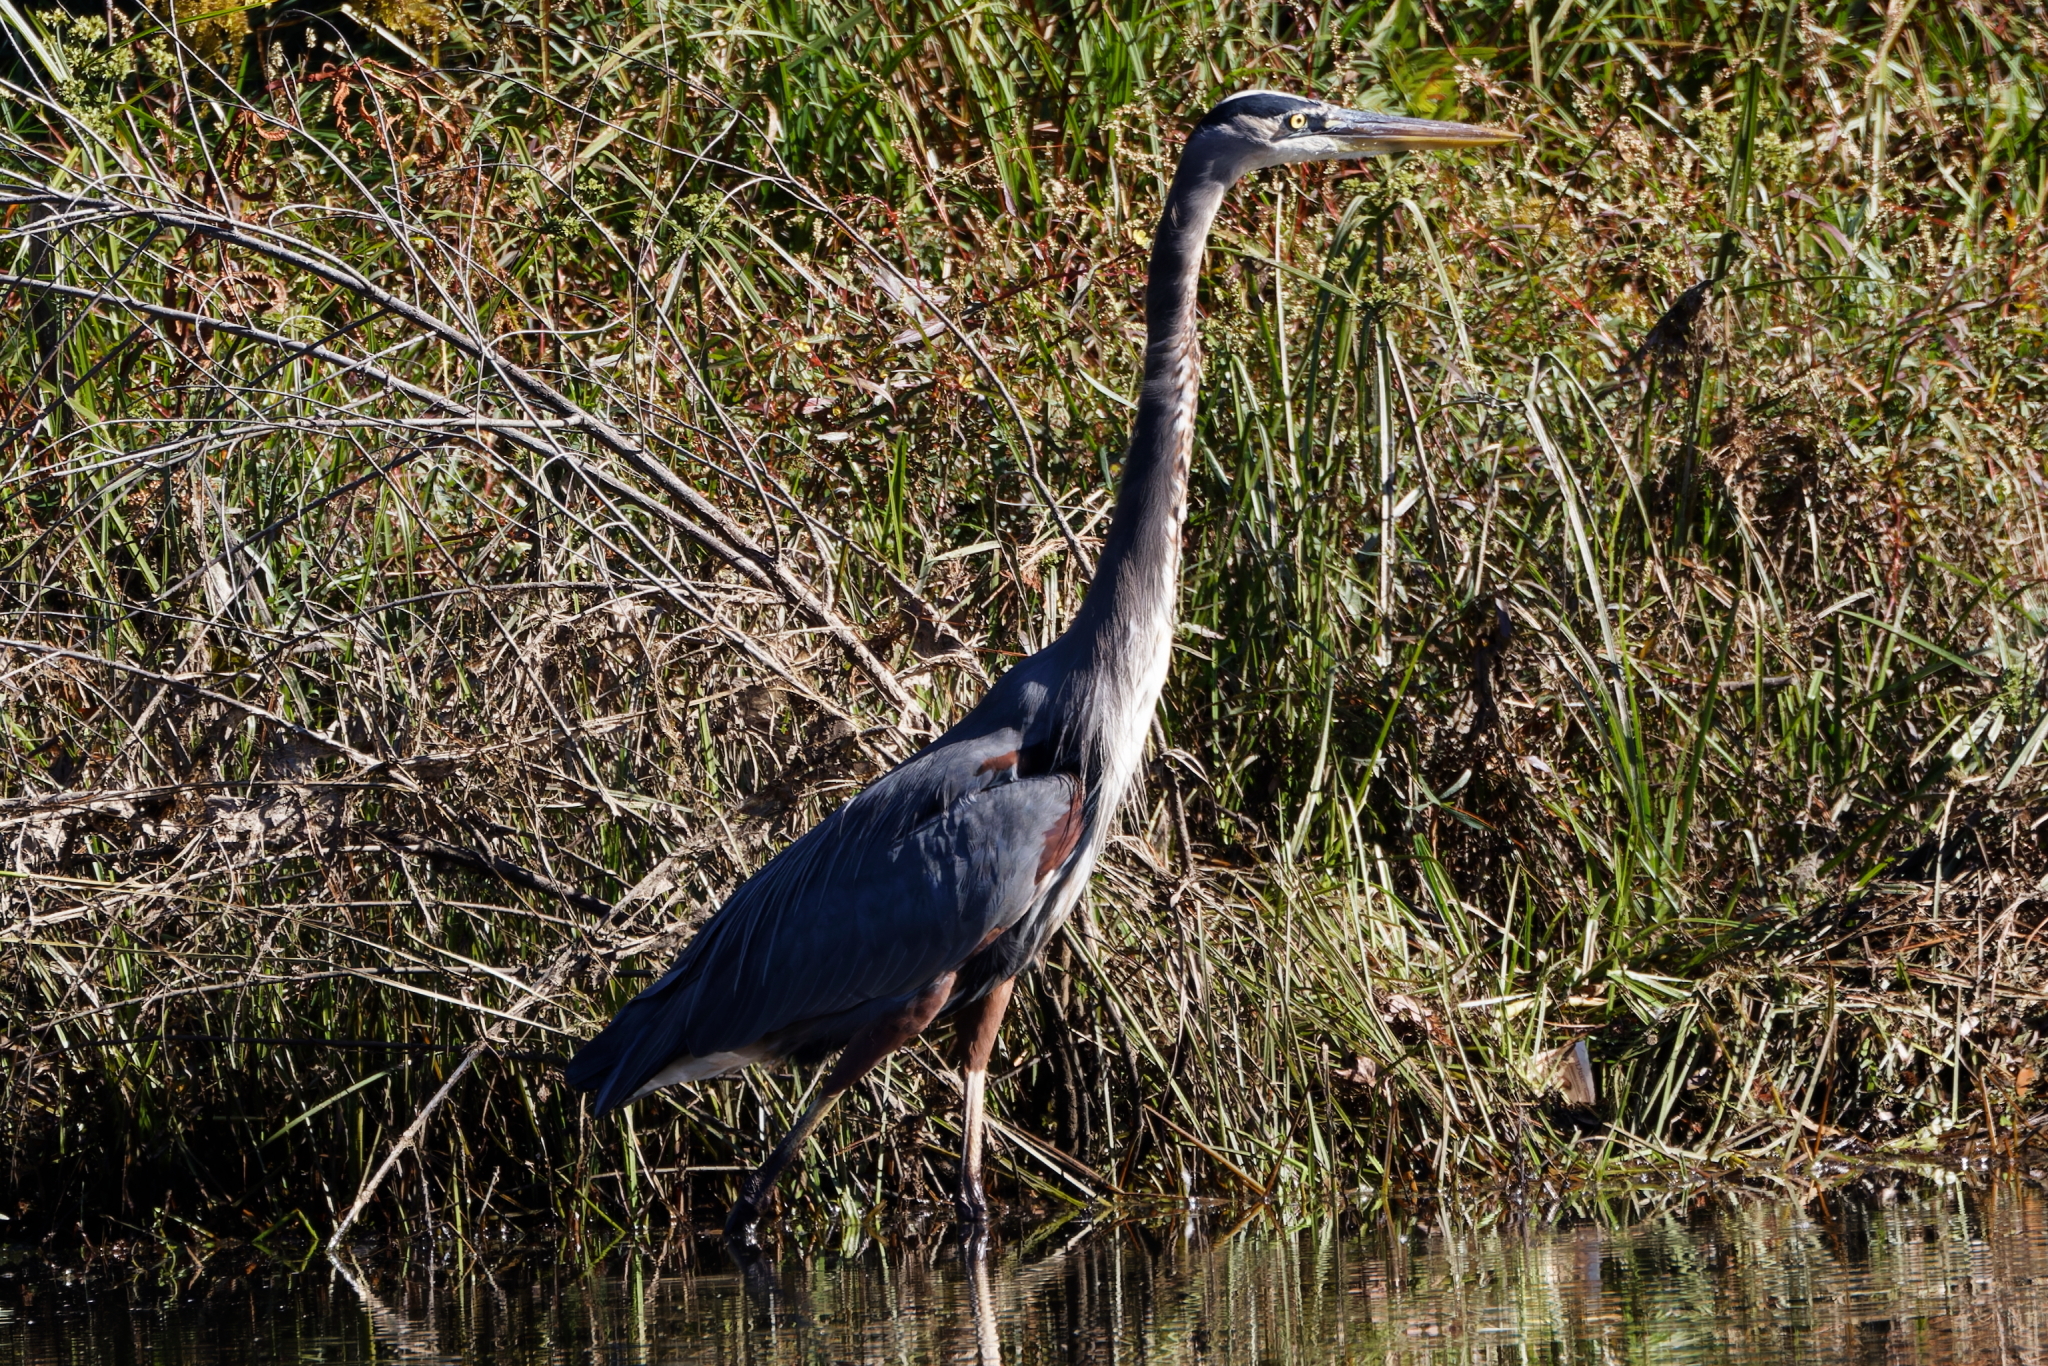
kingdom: Animalia
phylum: Chordata
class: Aves
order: Pelecaniformes
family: Ardeidae
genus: Ardea
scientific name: Ardea herodias
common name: Great blue heron
